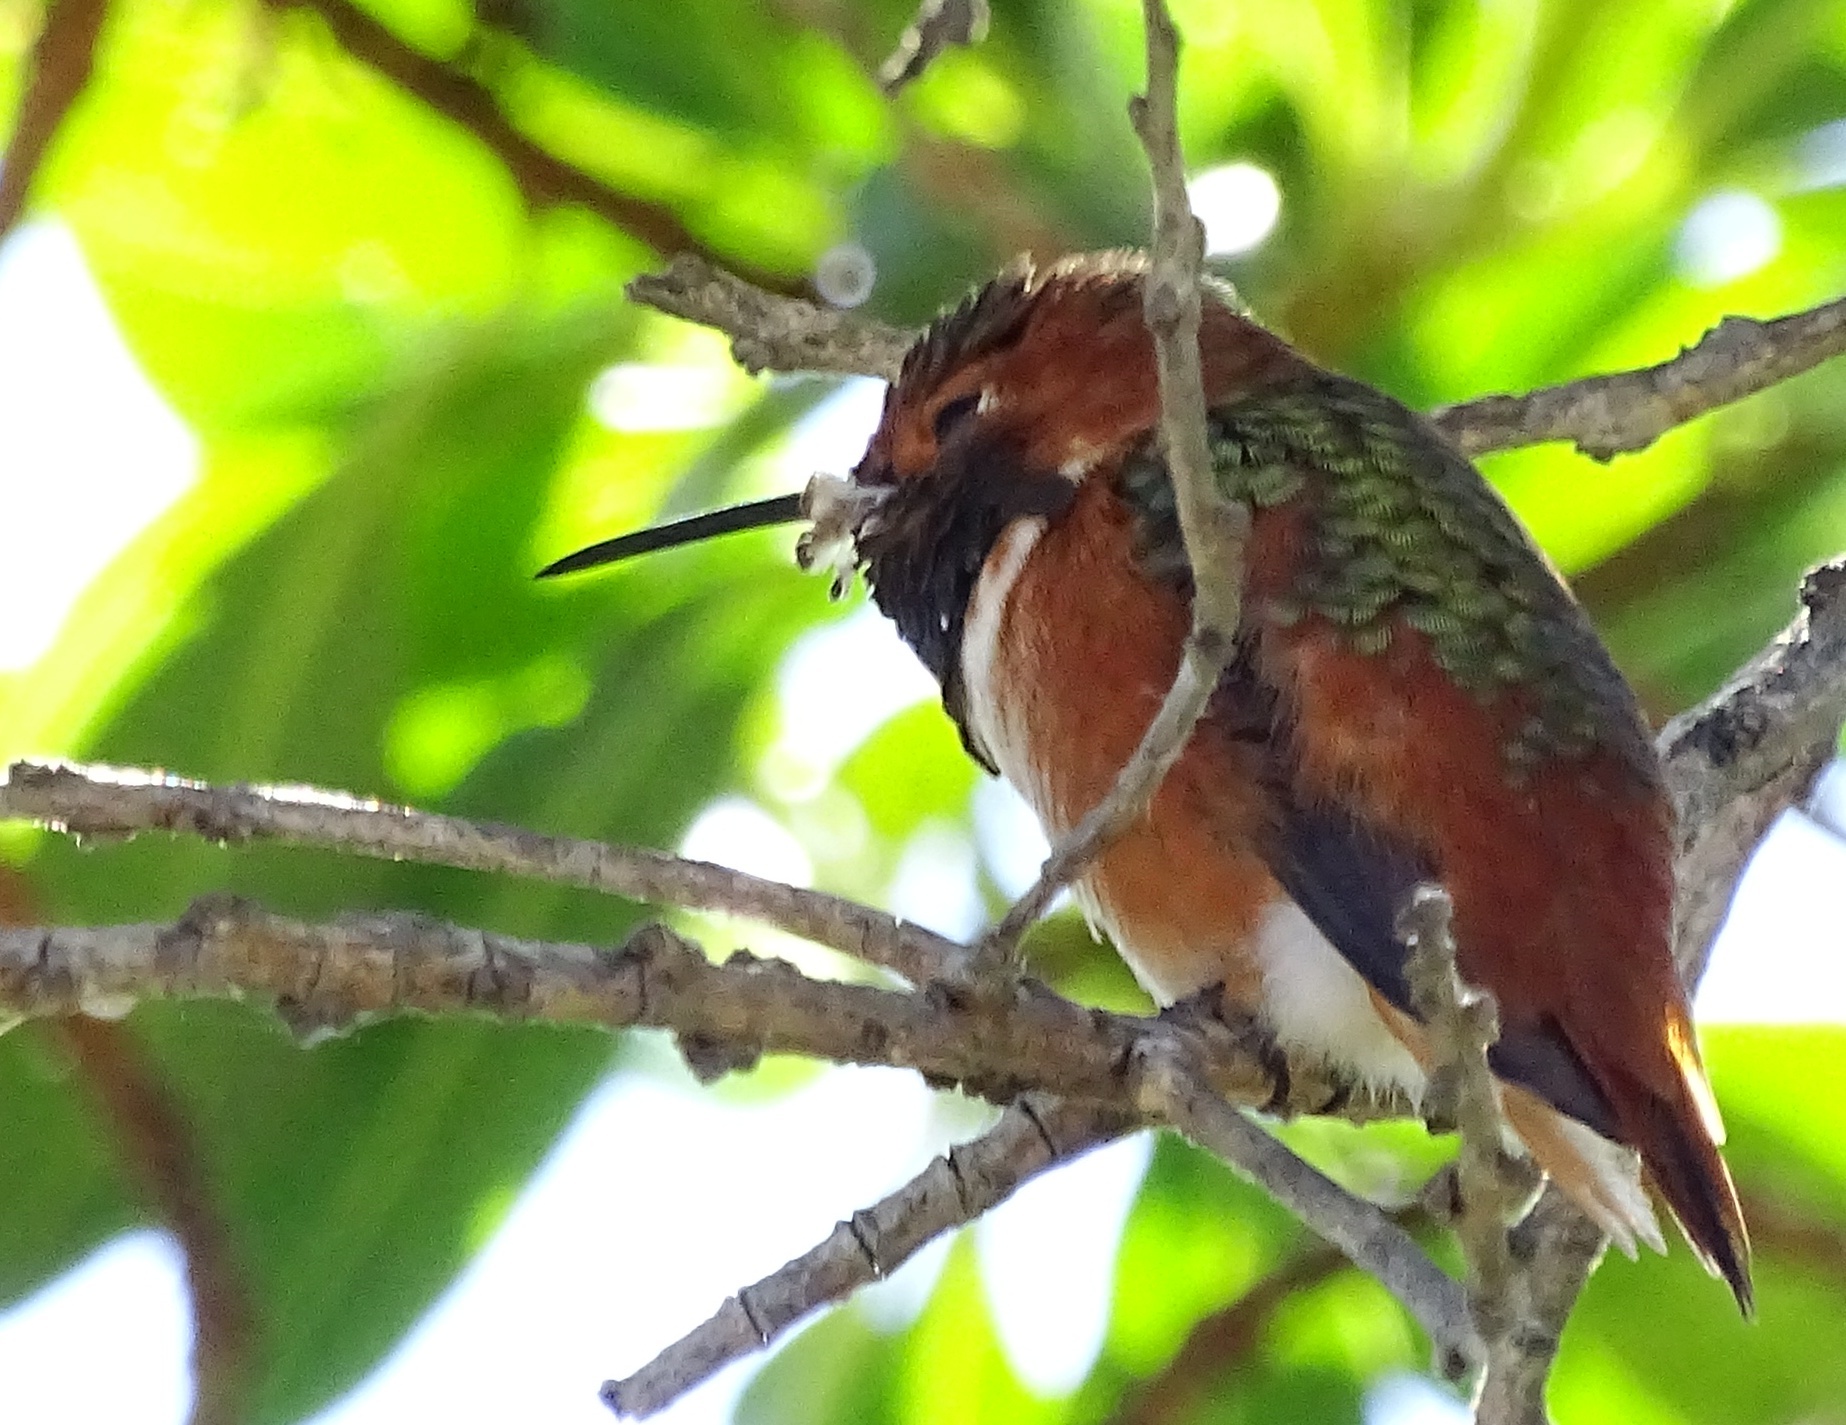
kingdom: Animalia
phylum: Chordata
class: Aves
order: Apodiformes
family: Trochilidae
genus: Selasphorus
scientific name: Selasphorus sasin
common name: Allen's hummingbird
